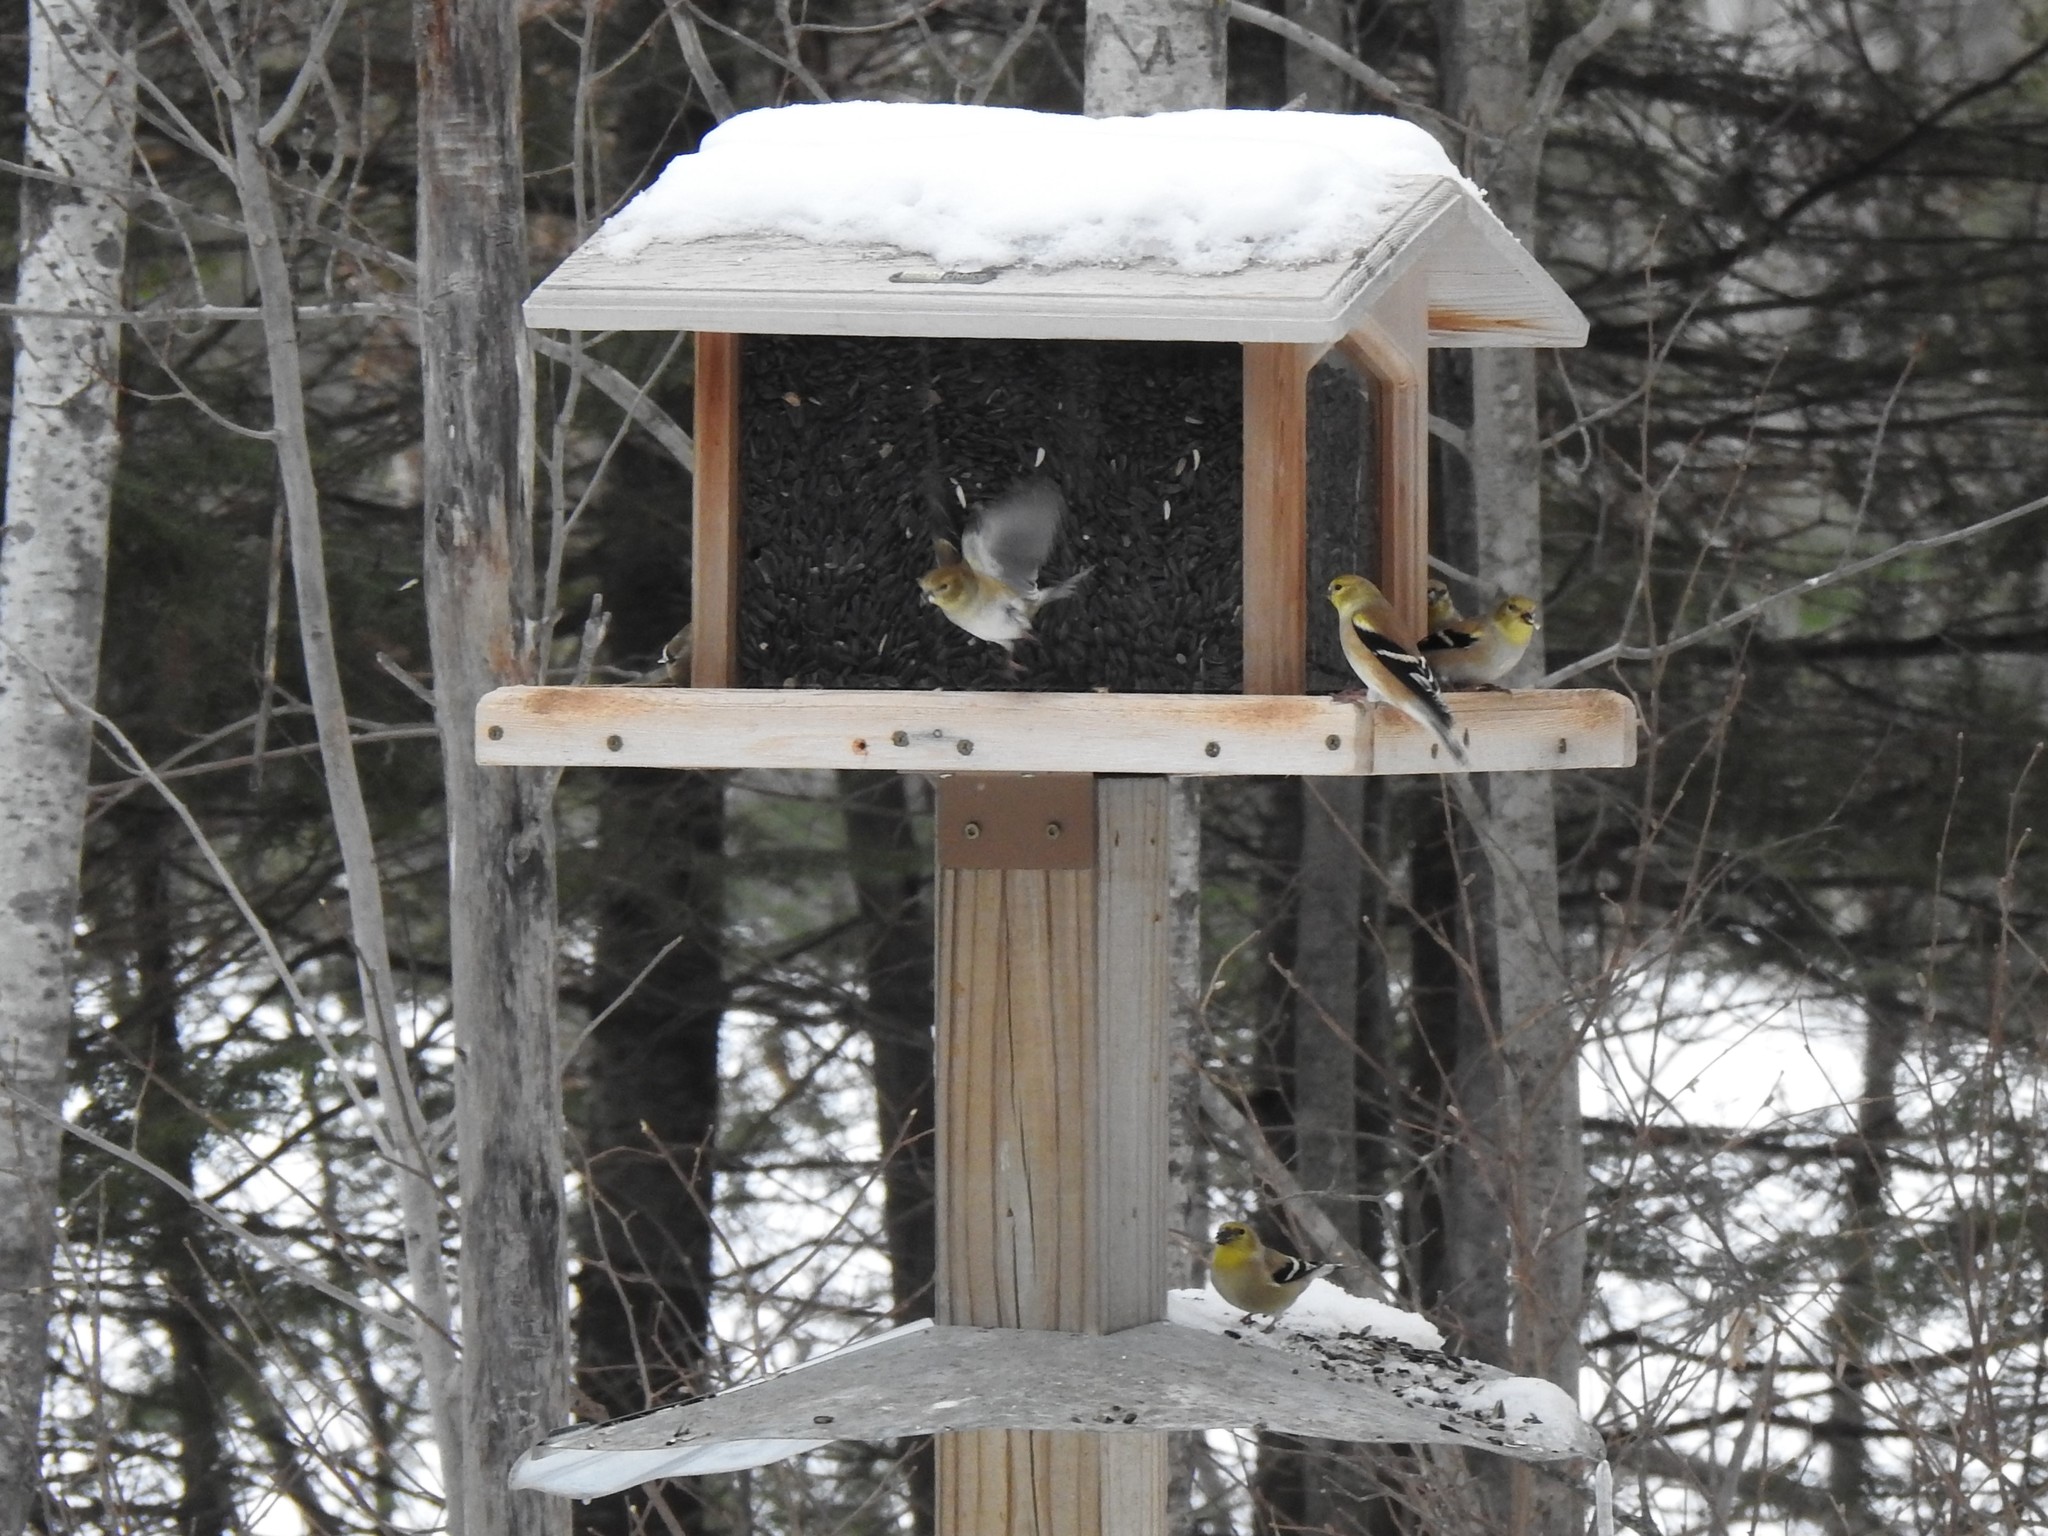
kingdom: Animalia
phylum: Chordata
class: Aves
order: Passeriformes
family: Fringillidae
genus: Spinus
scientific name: Spinus tristis
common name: American goldfinch
